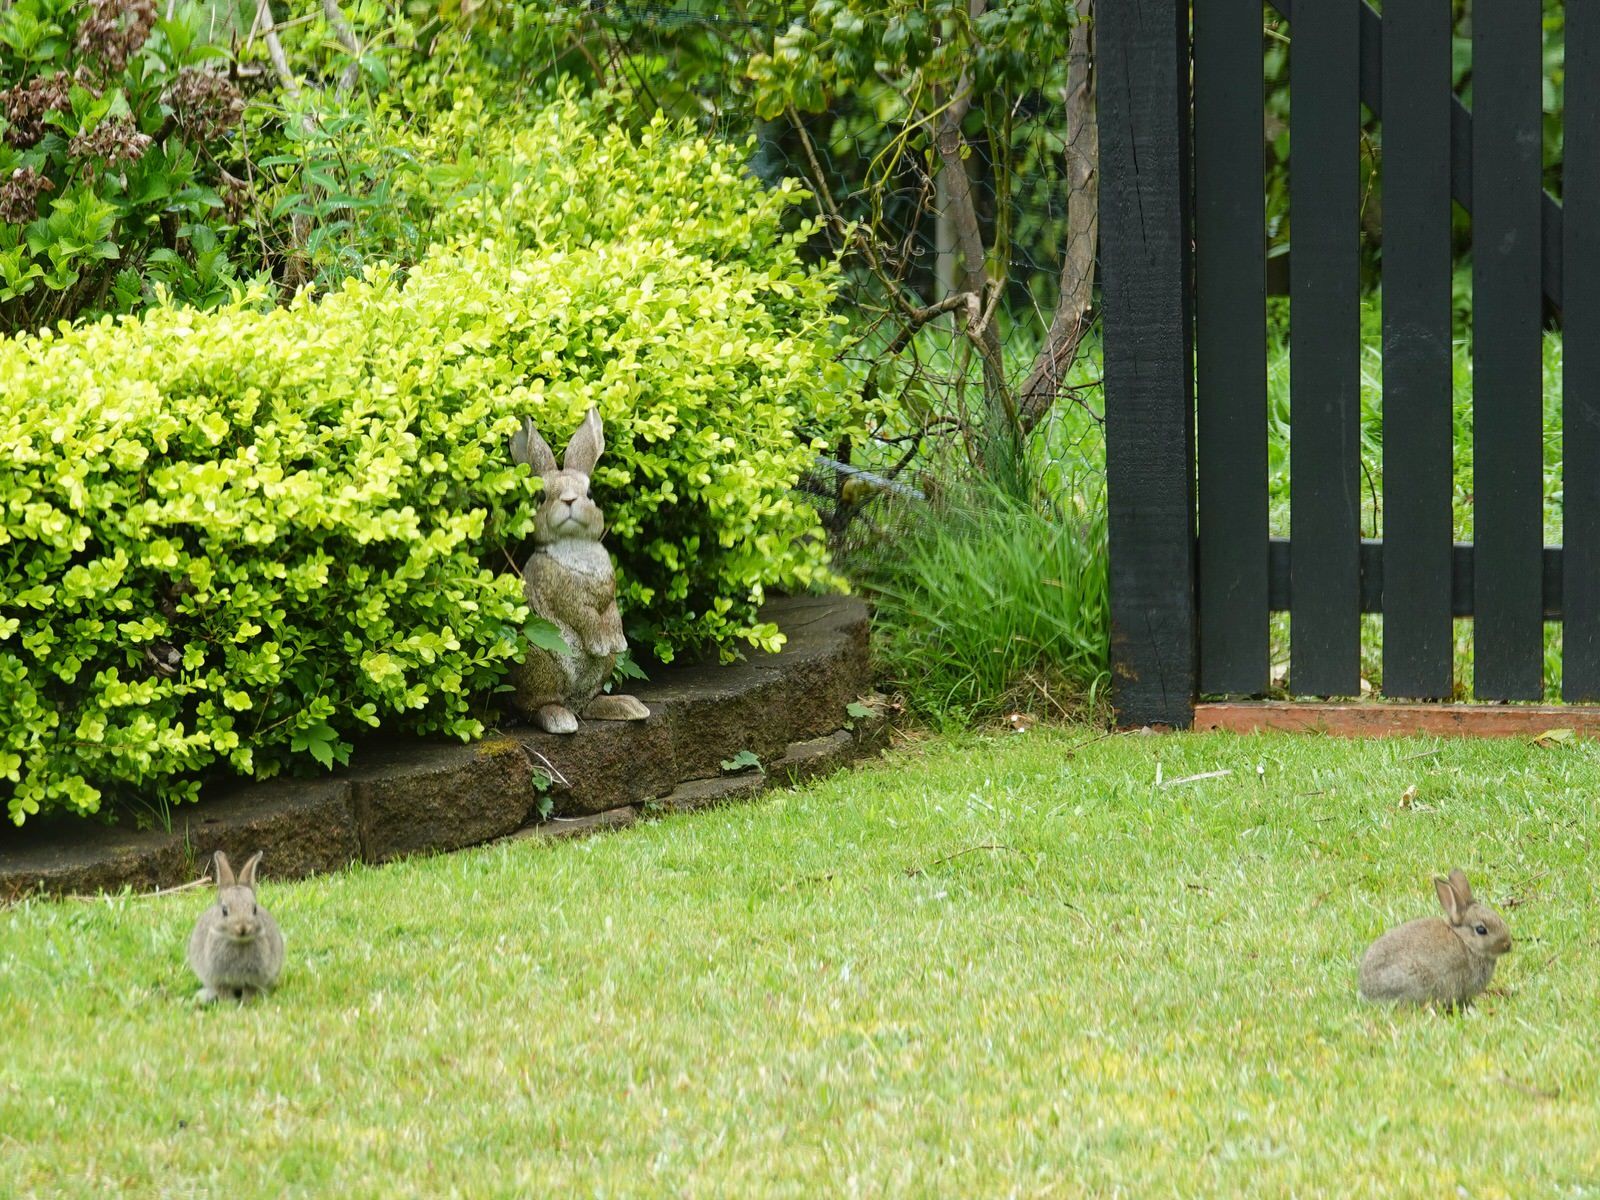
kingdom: Animalia
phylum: Chordata
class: Mammalia
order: Lagomorpha
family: Leporidae
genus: Oryctolagus
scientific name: Oryctolagus cuniculus
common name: European rabbit
